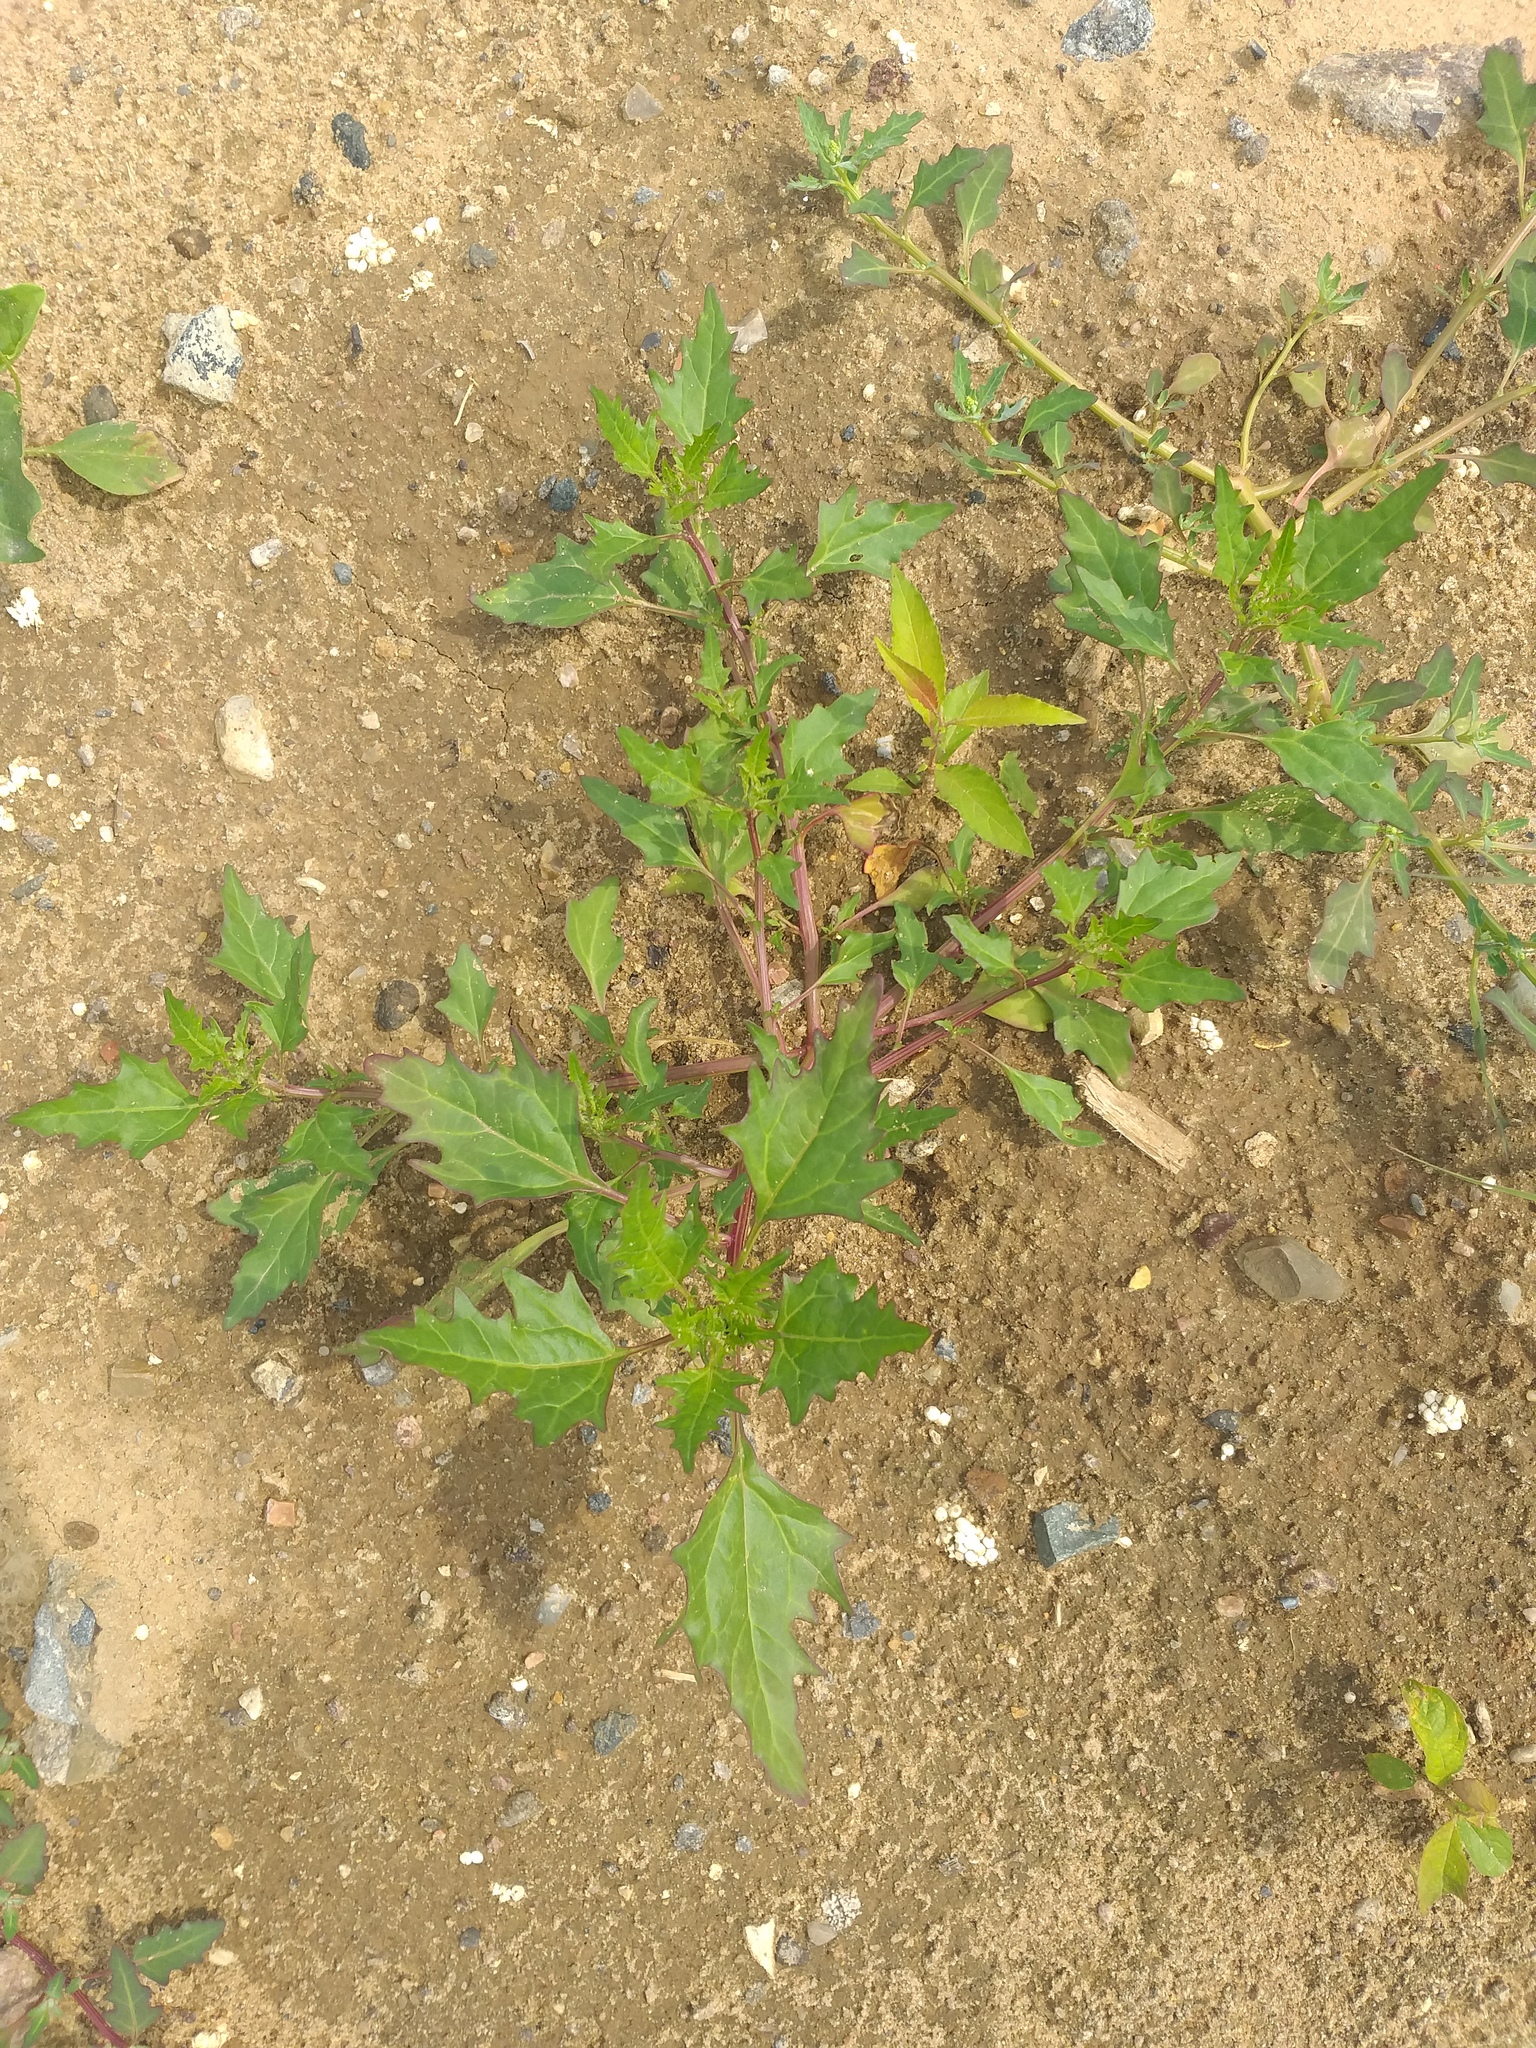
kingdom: Plantae
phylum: Tracheophyta
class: Magnoliopsida
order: Caryophyllales
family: Amaranthaceae
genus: Oxybasis
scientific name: Oxybasis rubra
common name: Red goosefoot
